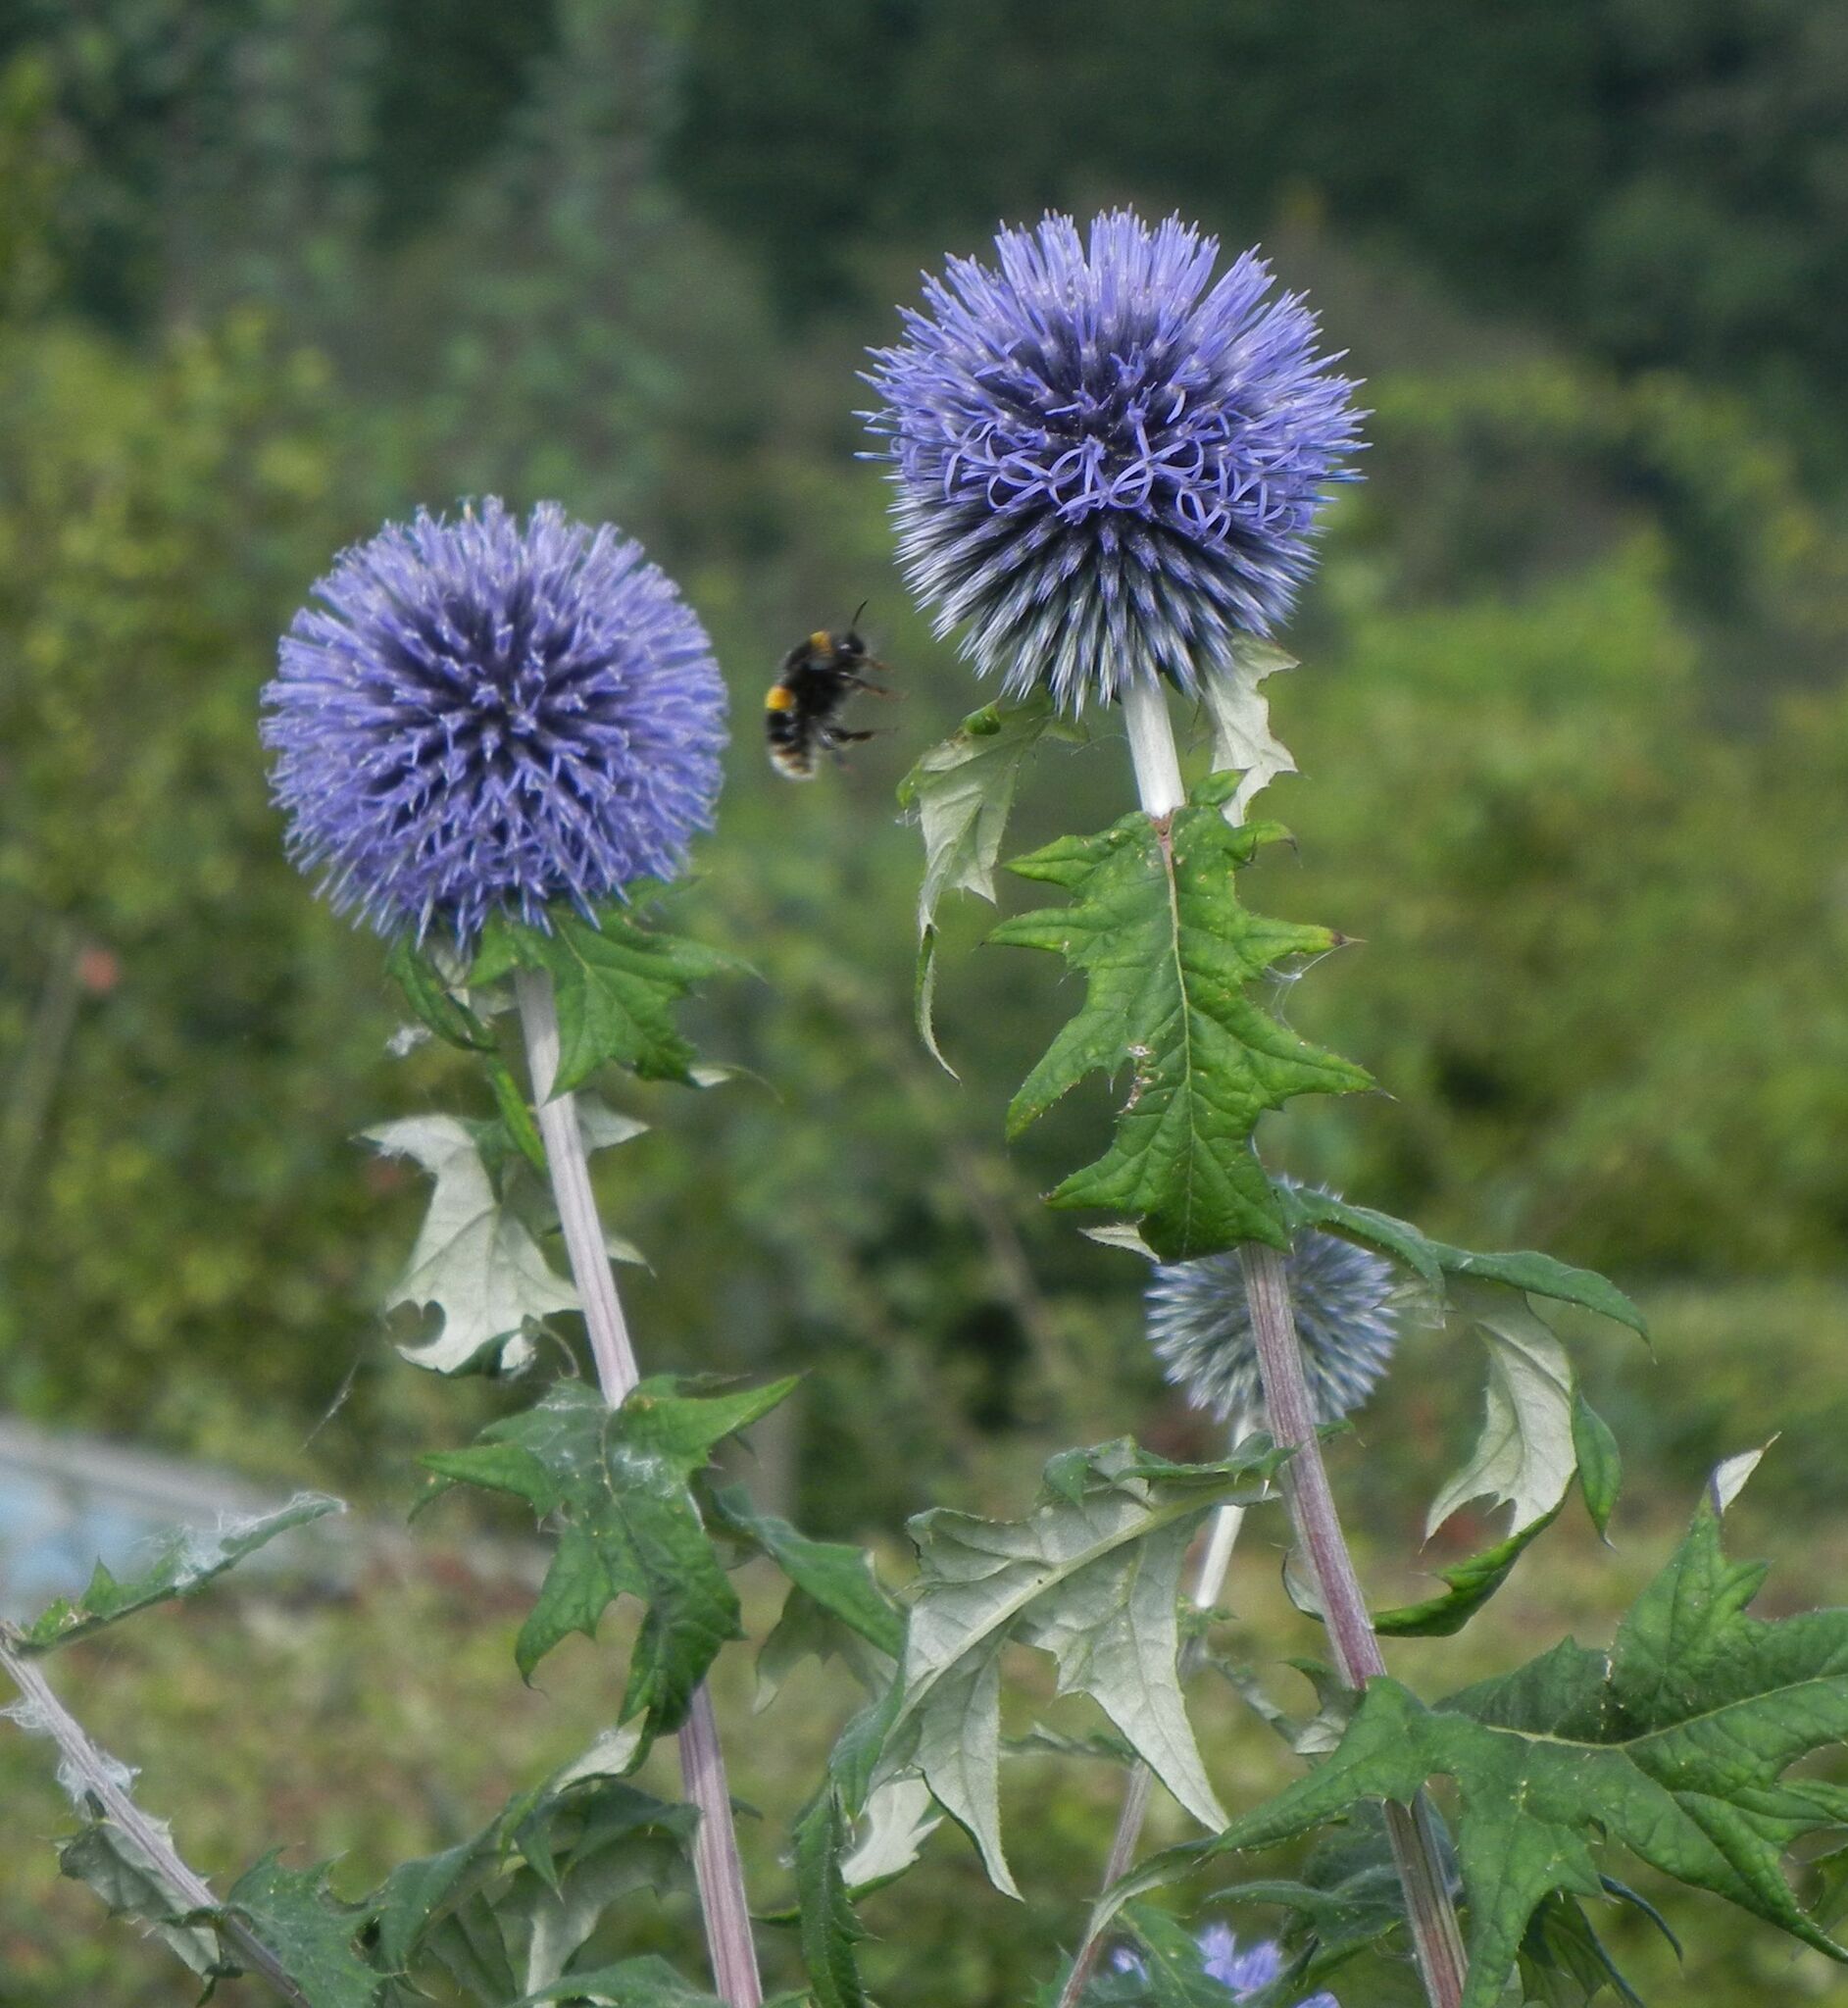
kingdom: Plantae
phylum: Tracheophyta
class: Magnoliopsida
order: Asterales
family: Asteraceae
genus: Echinops
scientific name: Echinops bannaticus
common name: Blue globe-thistle
